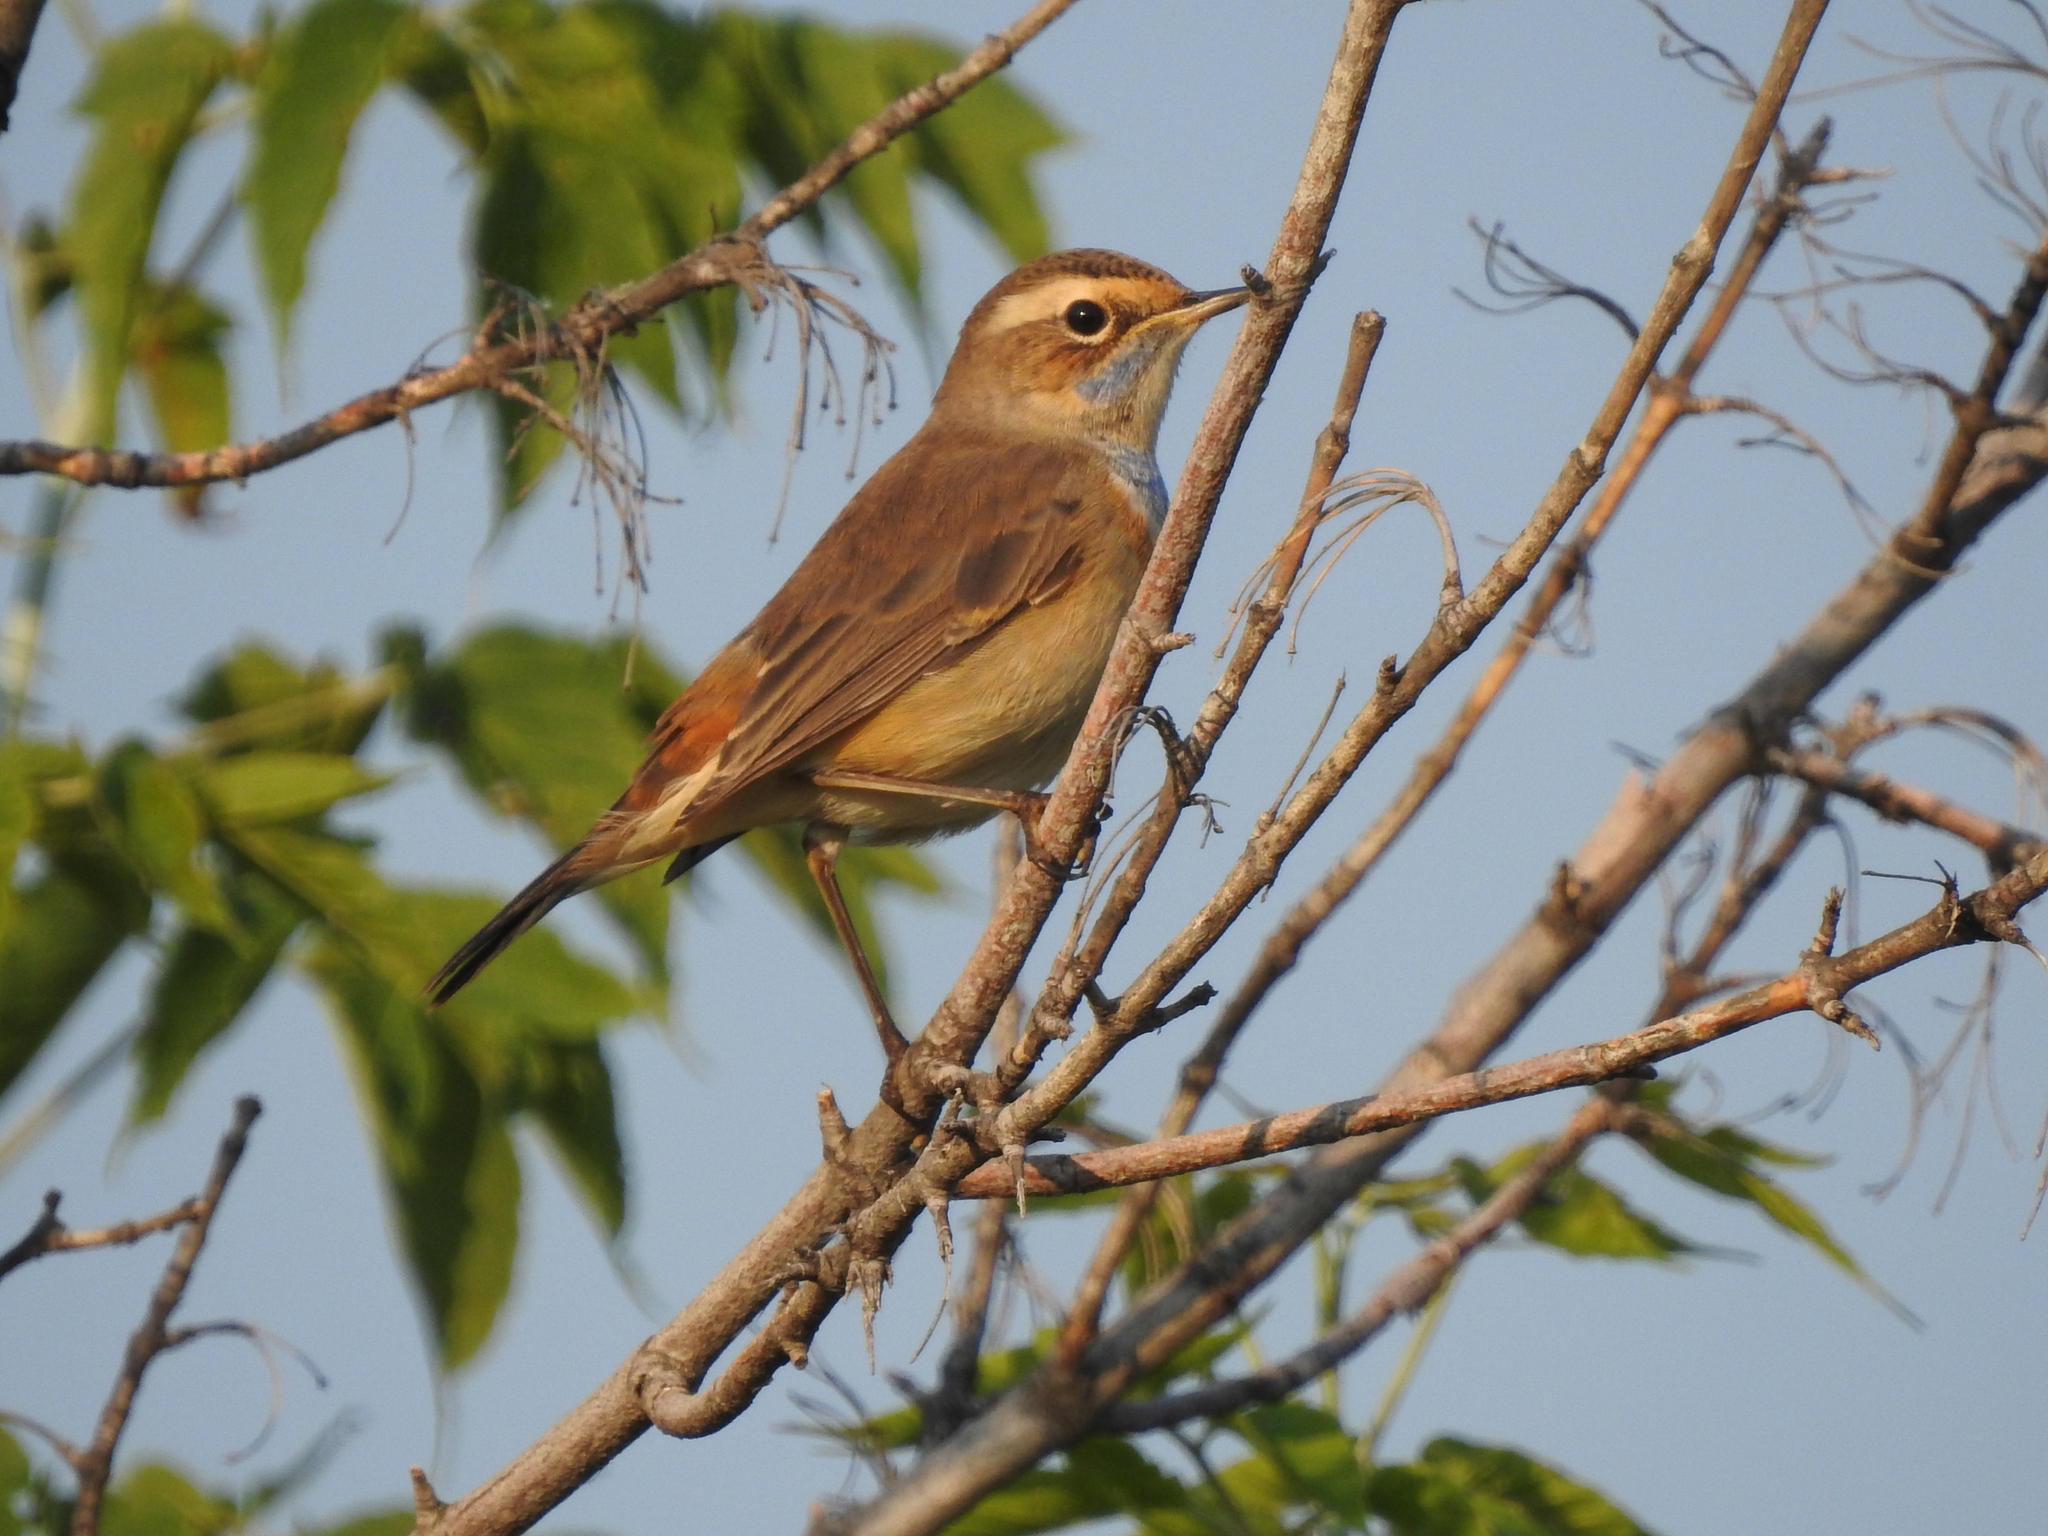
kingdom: Animalia
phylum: Chordata
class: Aves
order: Passeriformes
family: Muscicapidae
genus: Luscinia
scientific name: Luscinia svecica
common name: Bluethroat
